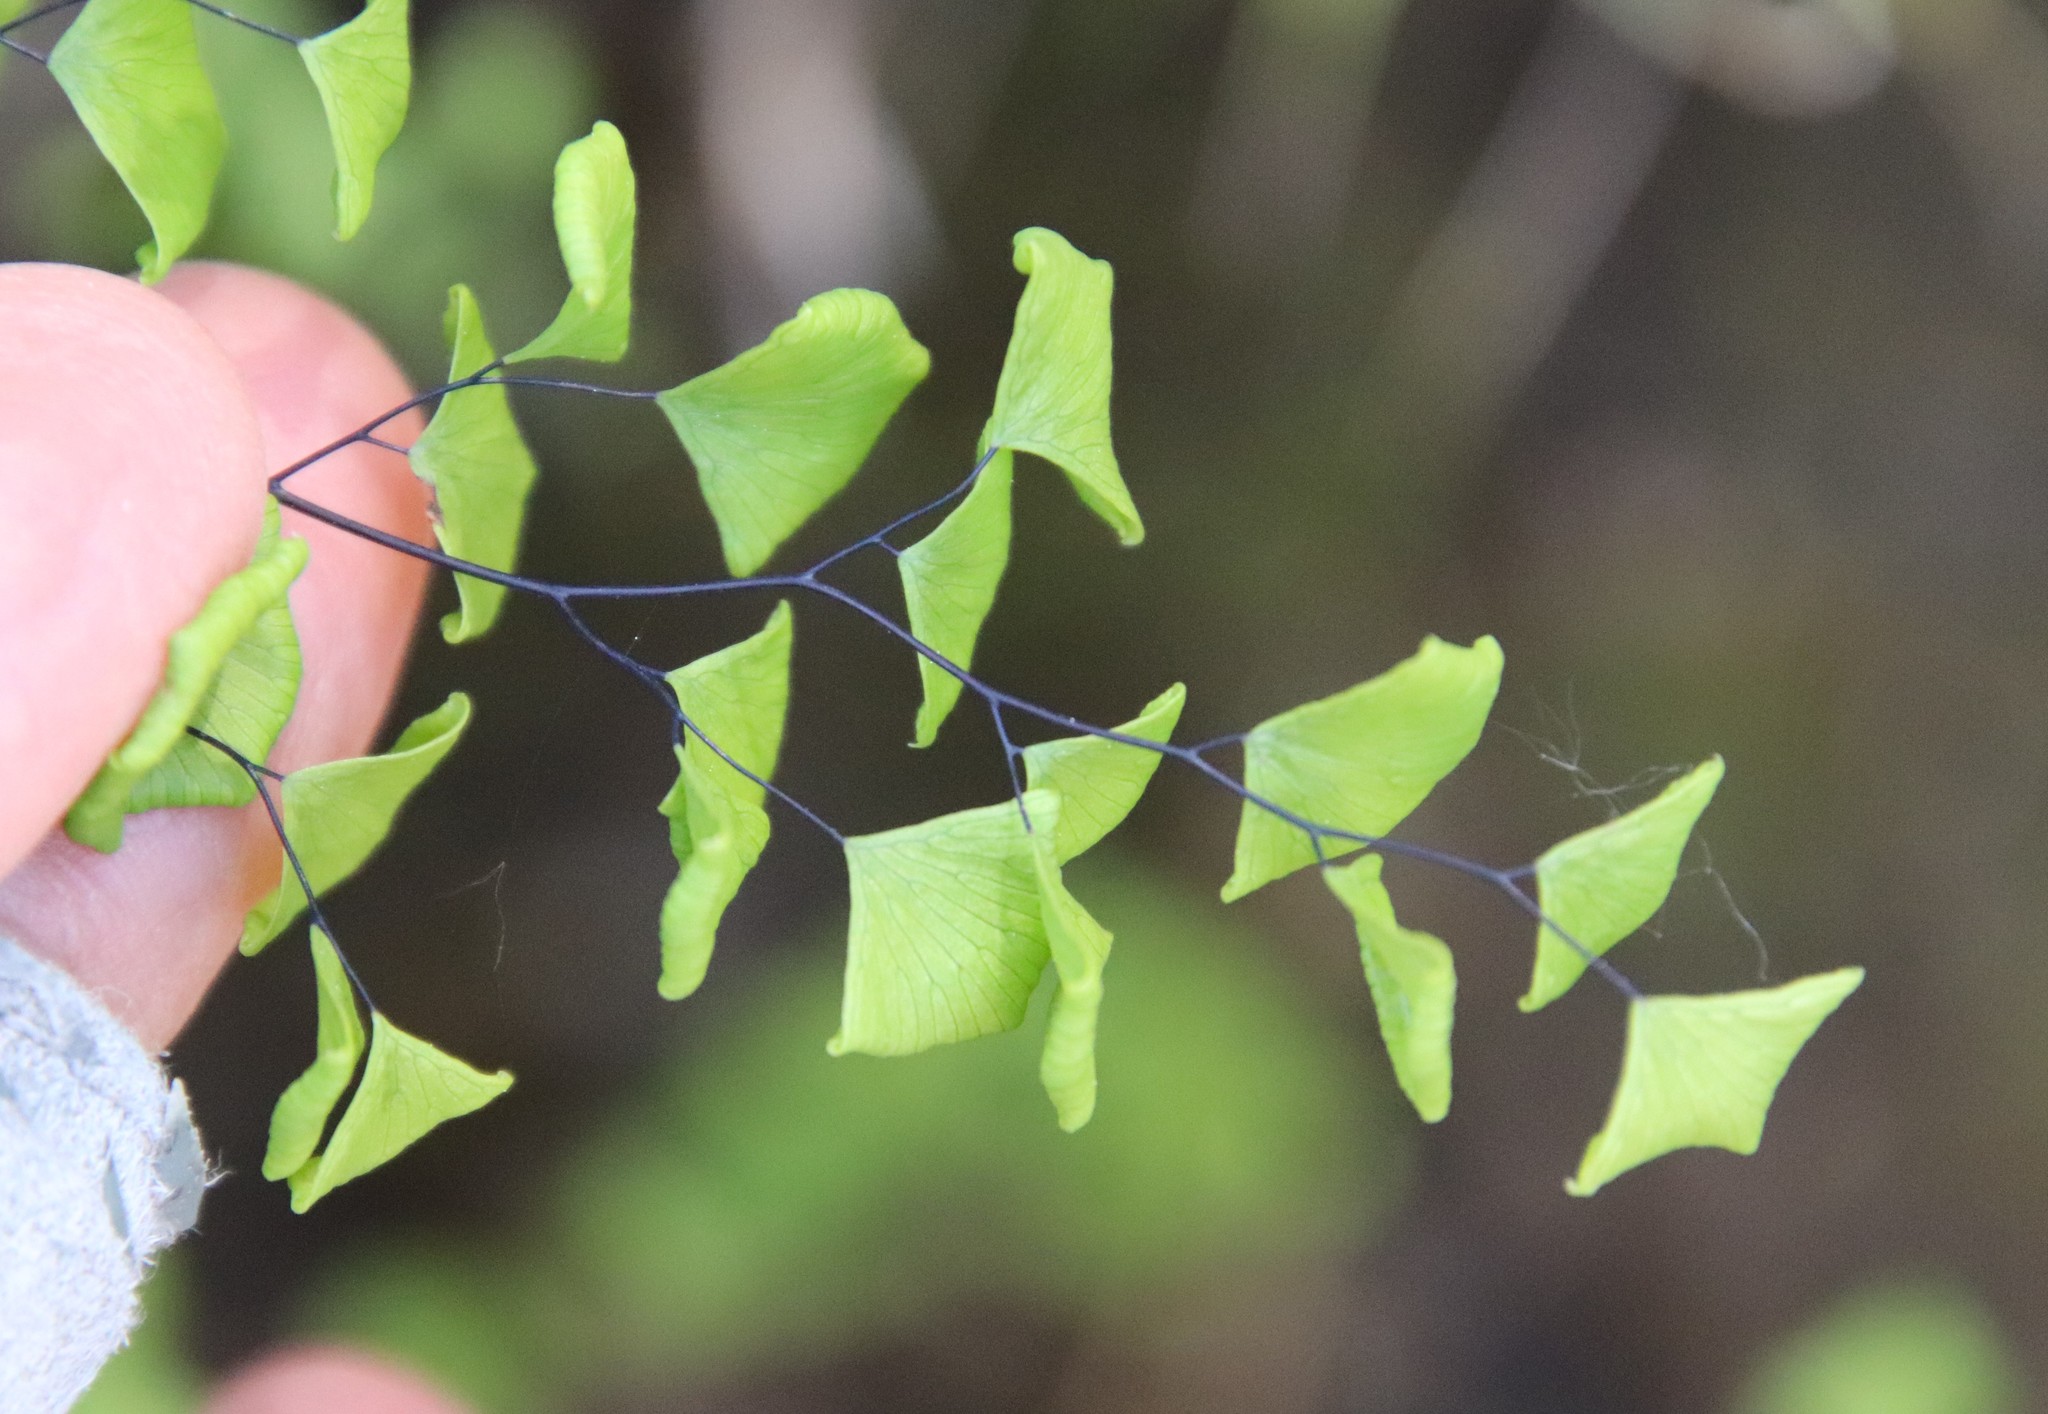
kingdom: Plantae
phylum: Tracheophyta
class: Polypodiopsida
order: Polypodiales
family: Pteridaceae
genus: Adiantum
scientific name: Adiantum jordanii
